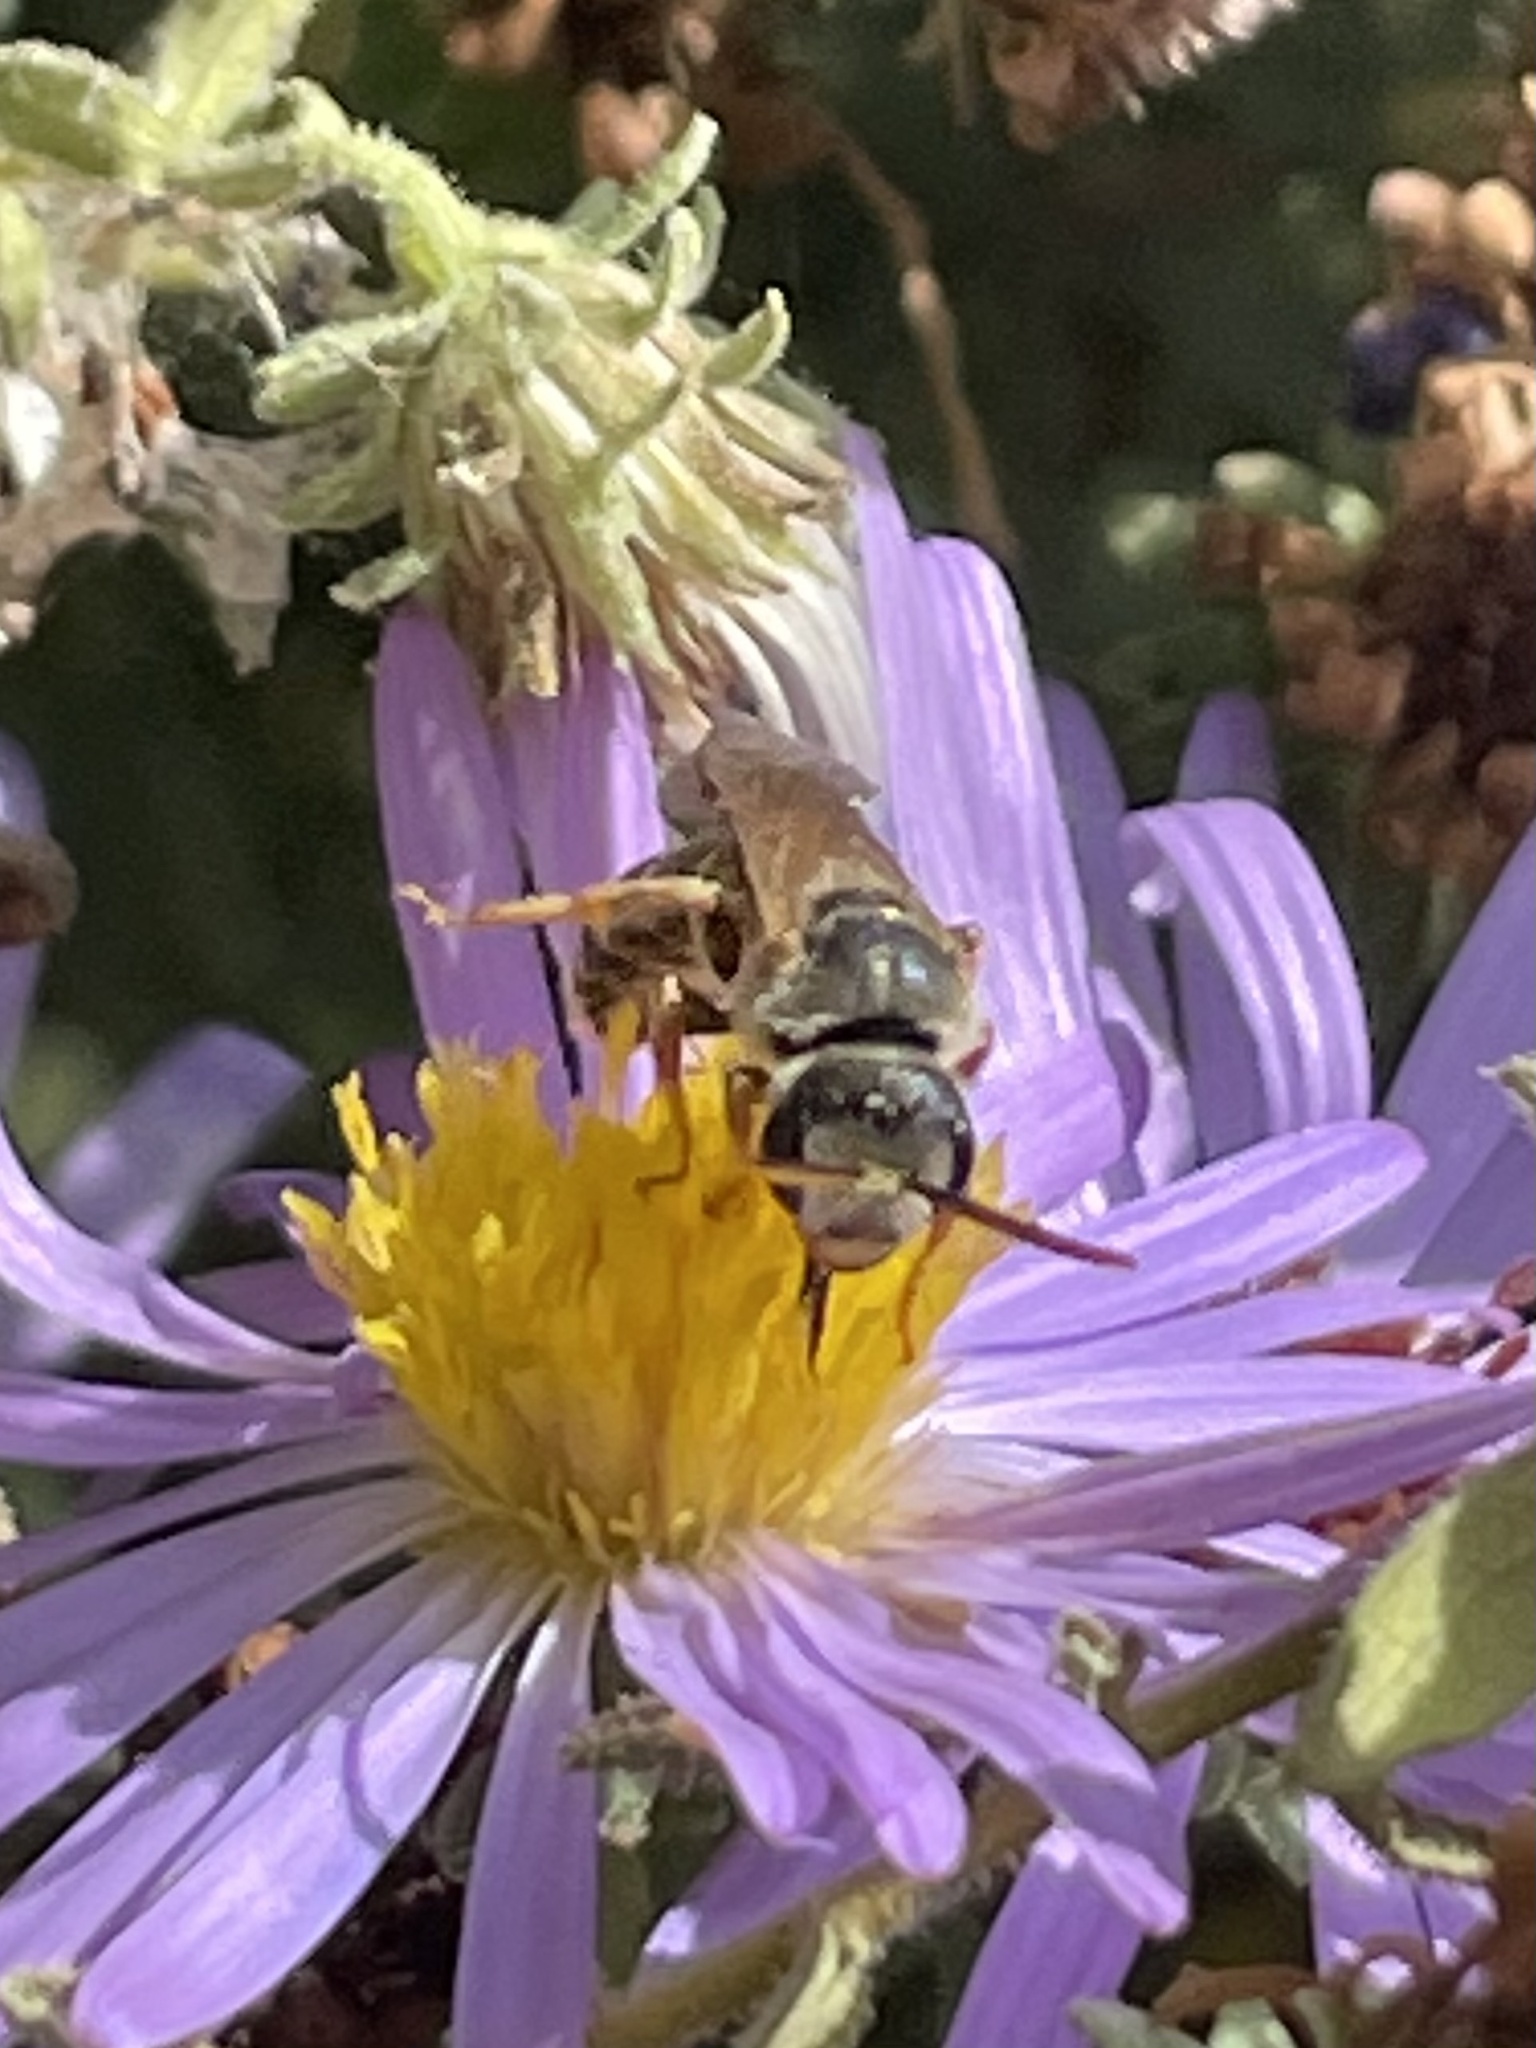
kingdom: Animalia
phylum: Arthropoda
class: Insecta
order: Hymenoptera
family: Halictidae
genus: Halictus
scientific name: Halictus ligatus
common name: Ligated furrow bee
